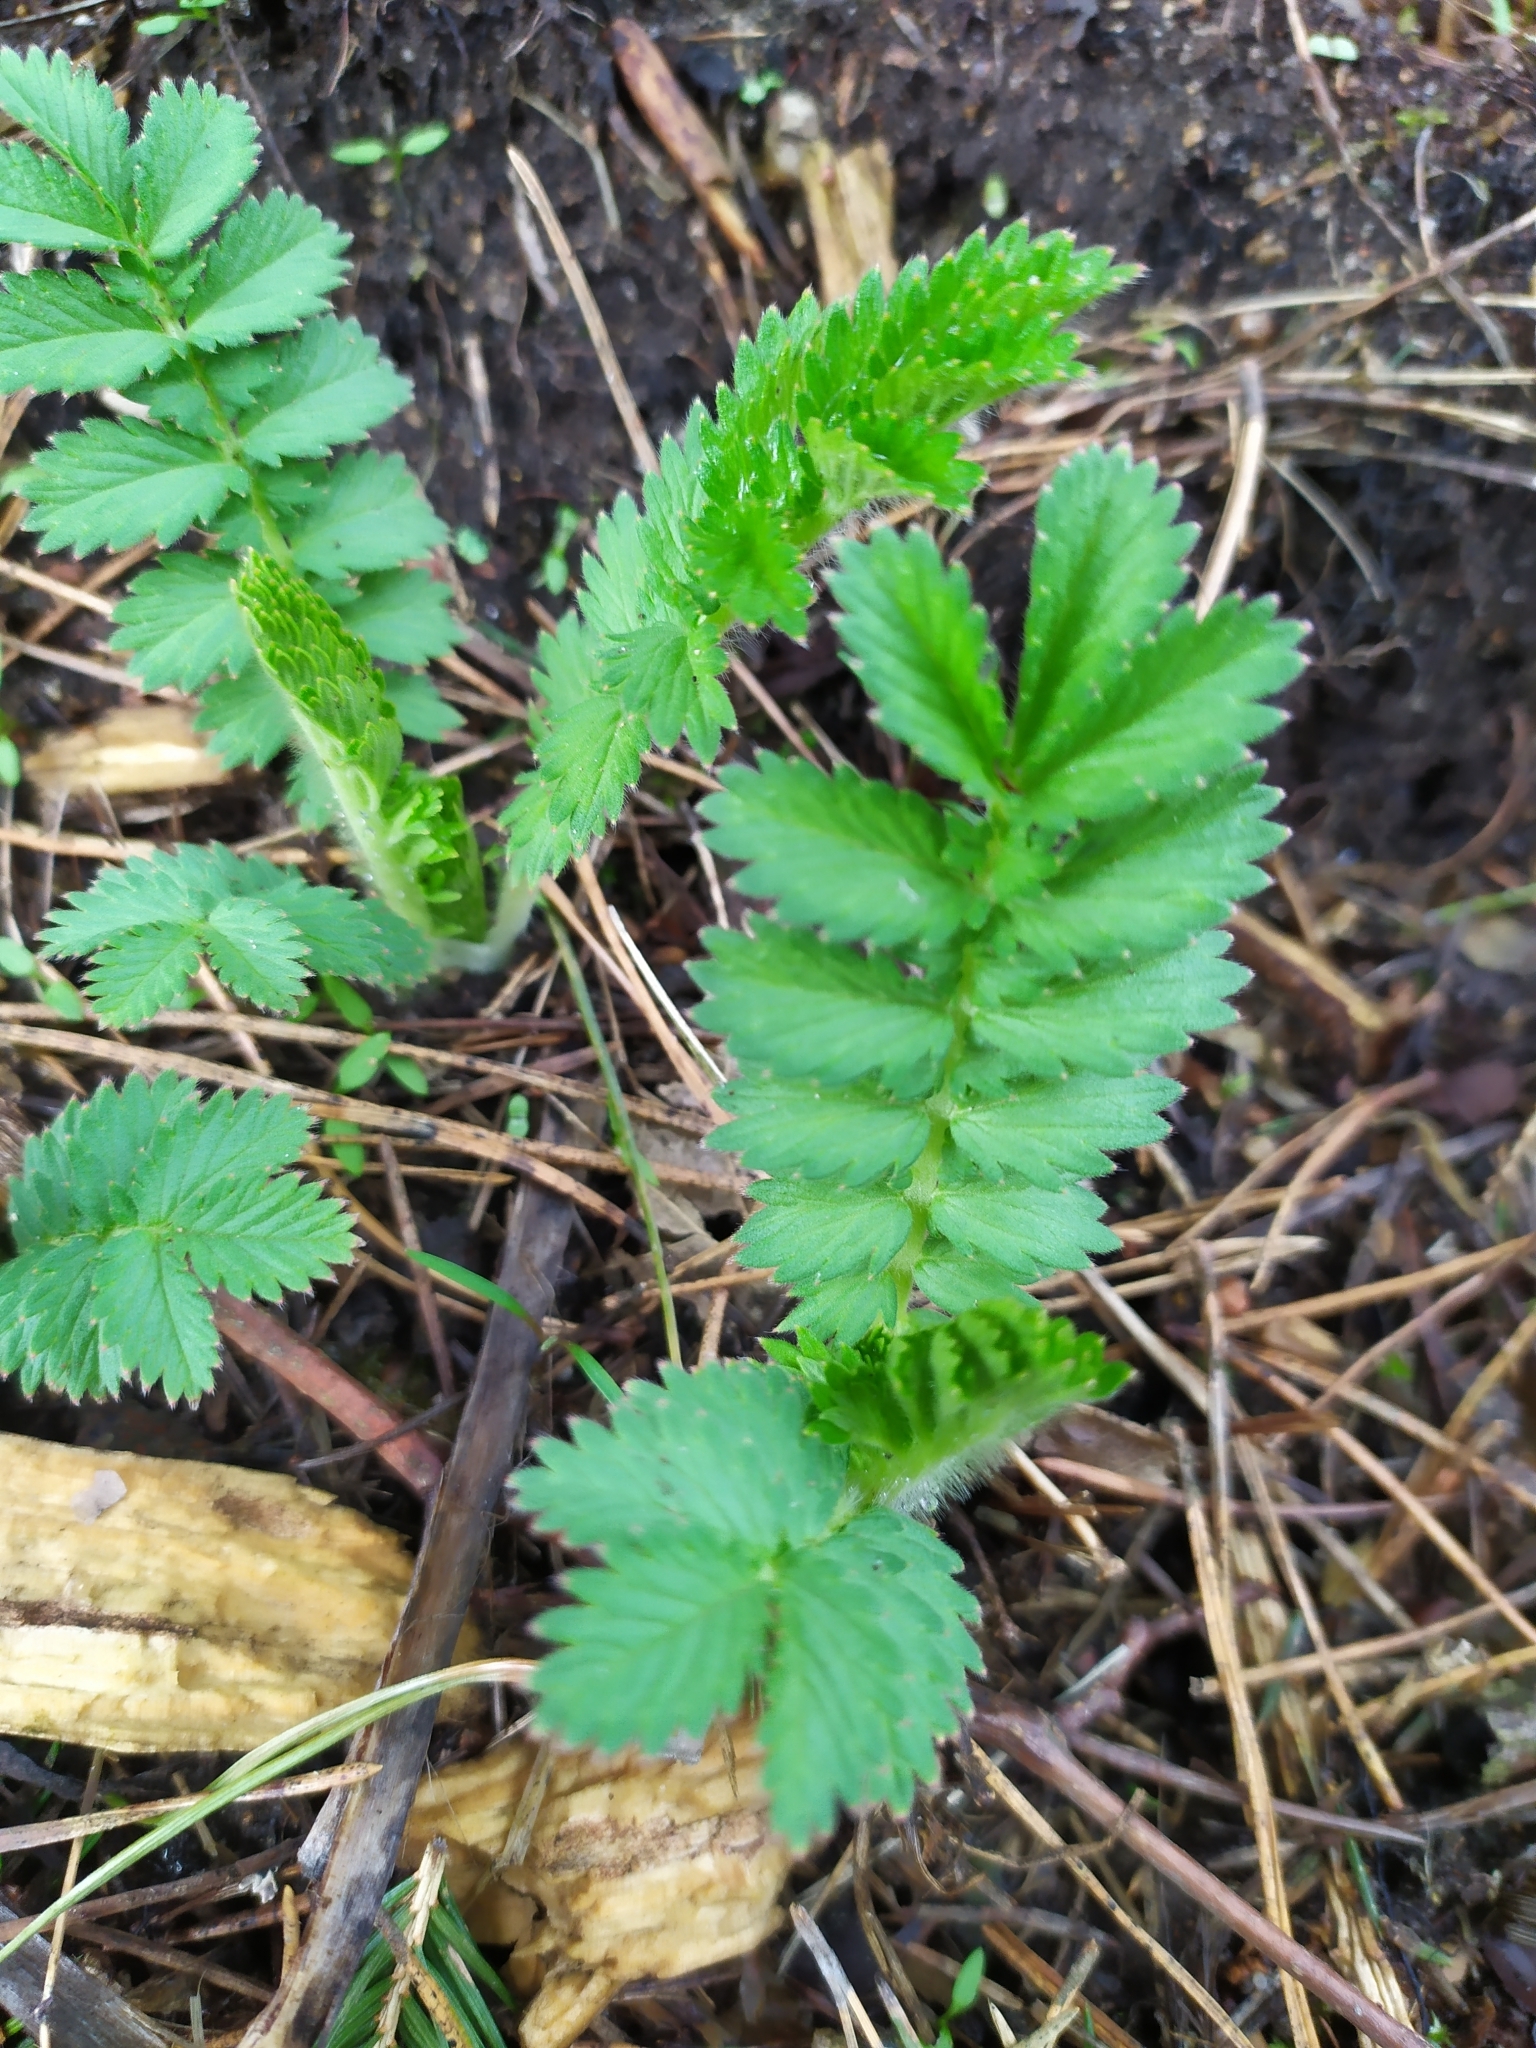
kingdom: Plantae
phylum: Tracheophyta
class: Magnoliopsida
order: Rosales
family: Rosaceae
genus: Argentina
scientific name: Argentina anserina
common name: Common silverweed
